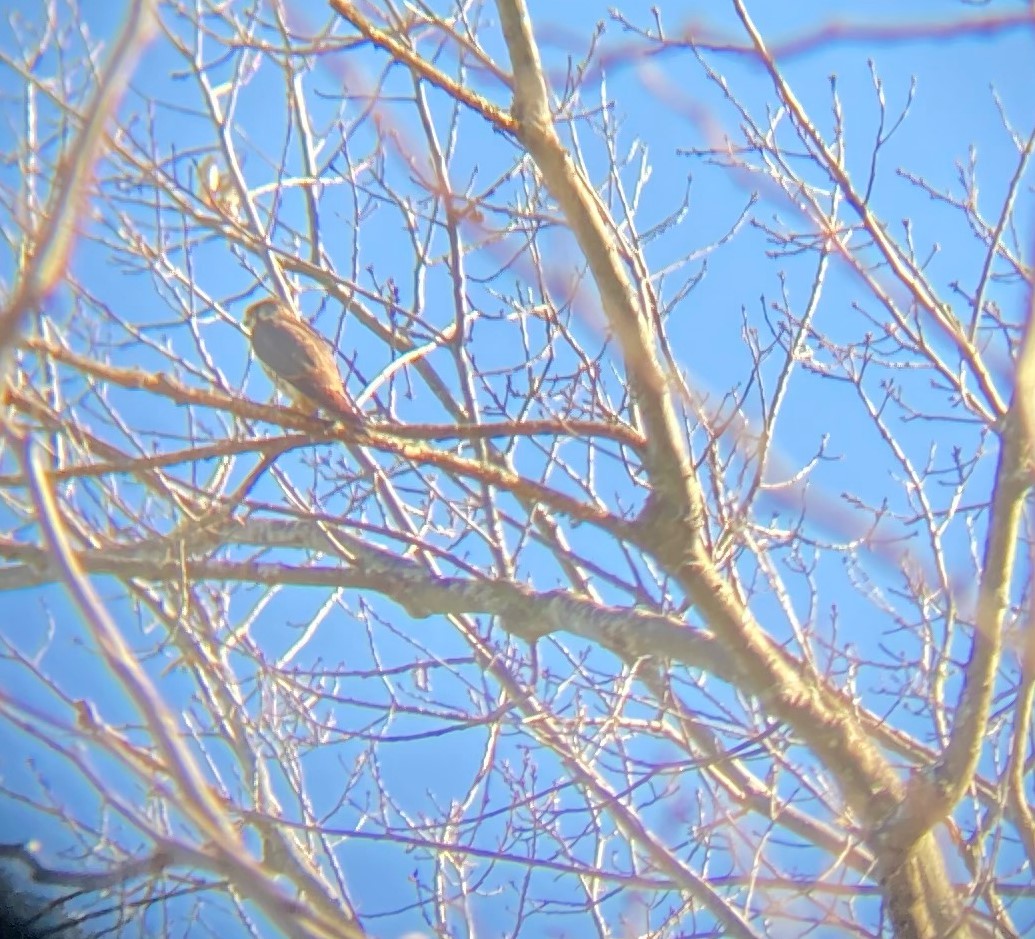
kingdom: Animalia
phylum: Chordata
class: Aves
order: Falconiformes
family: Falconidae
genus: Falco
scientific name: Falco columbarius
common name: Merlin
